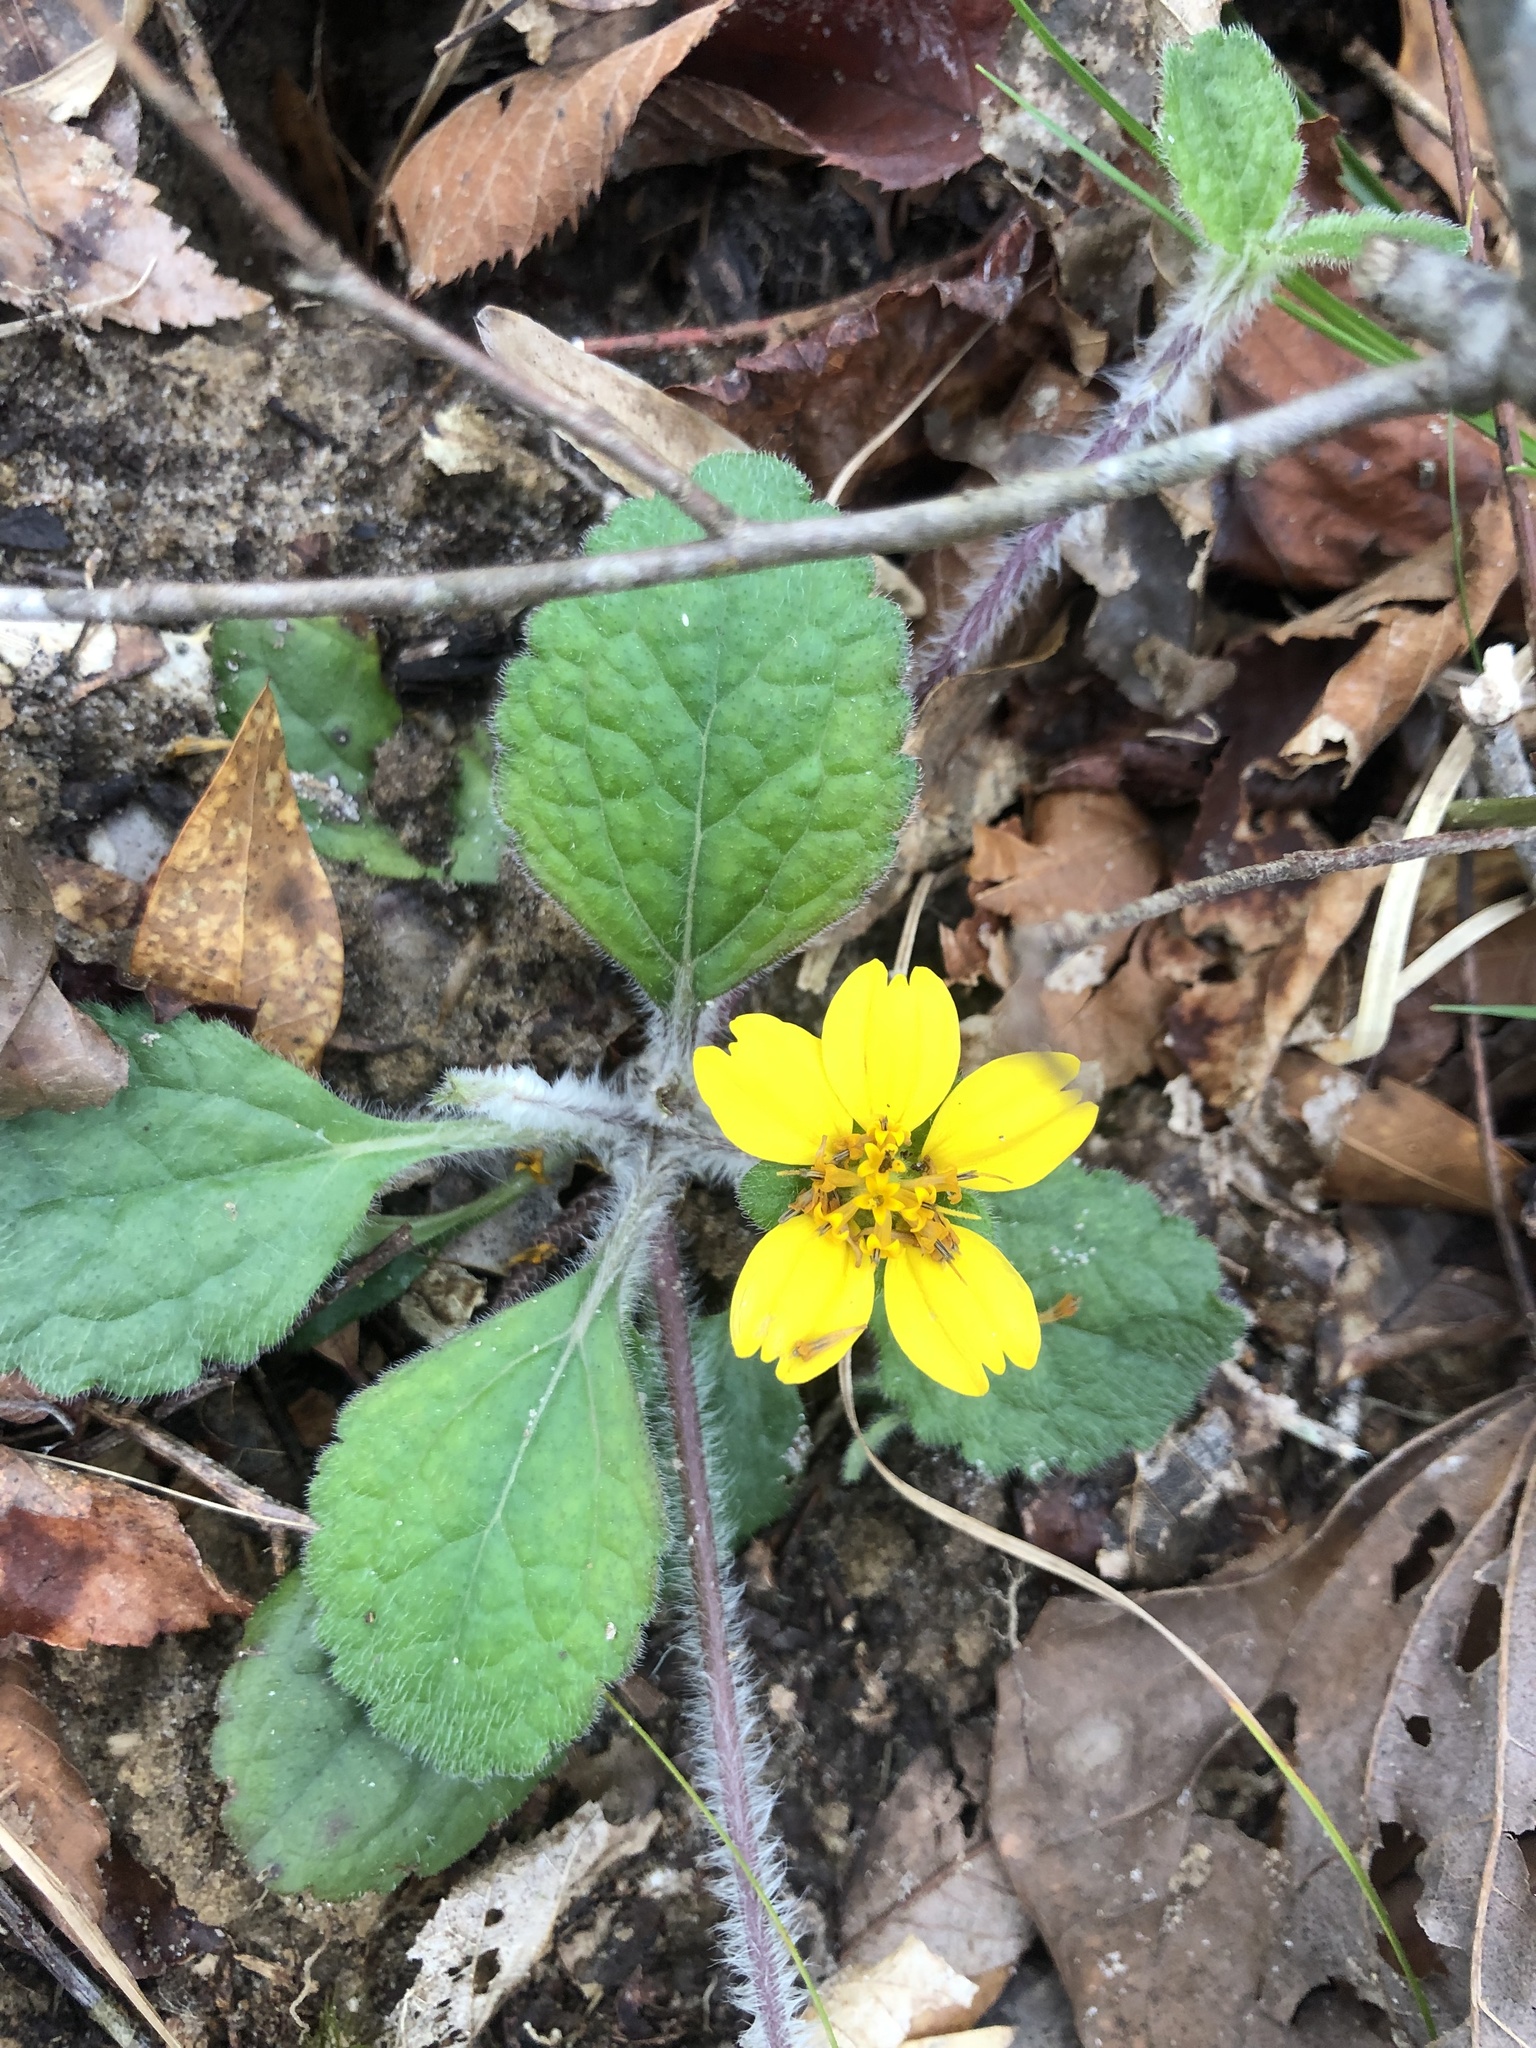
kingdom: Plantae
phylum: Tracheophyta
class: Magnoliopsida
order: Asterales
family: Asteraceae
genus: Chrysogonum
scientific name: Chrysogonum australe
